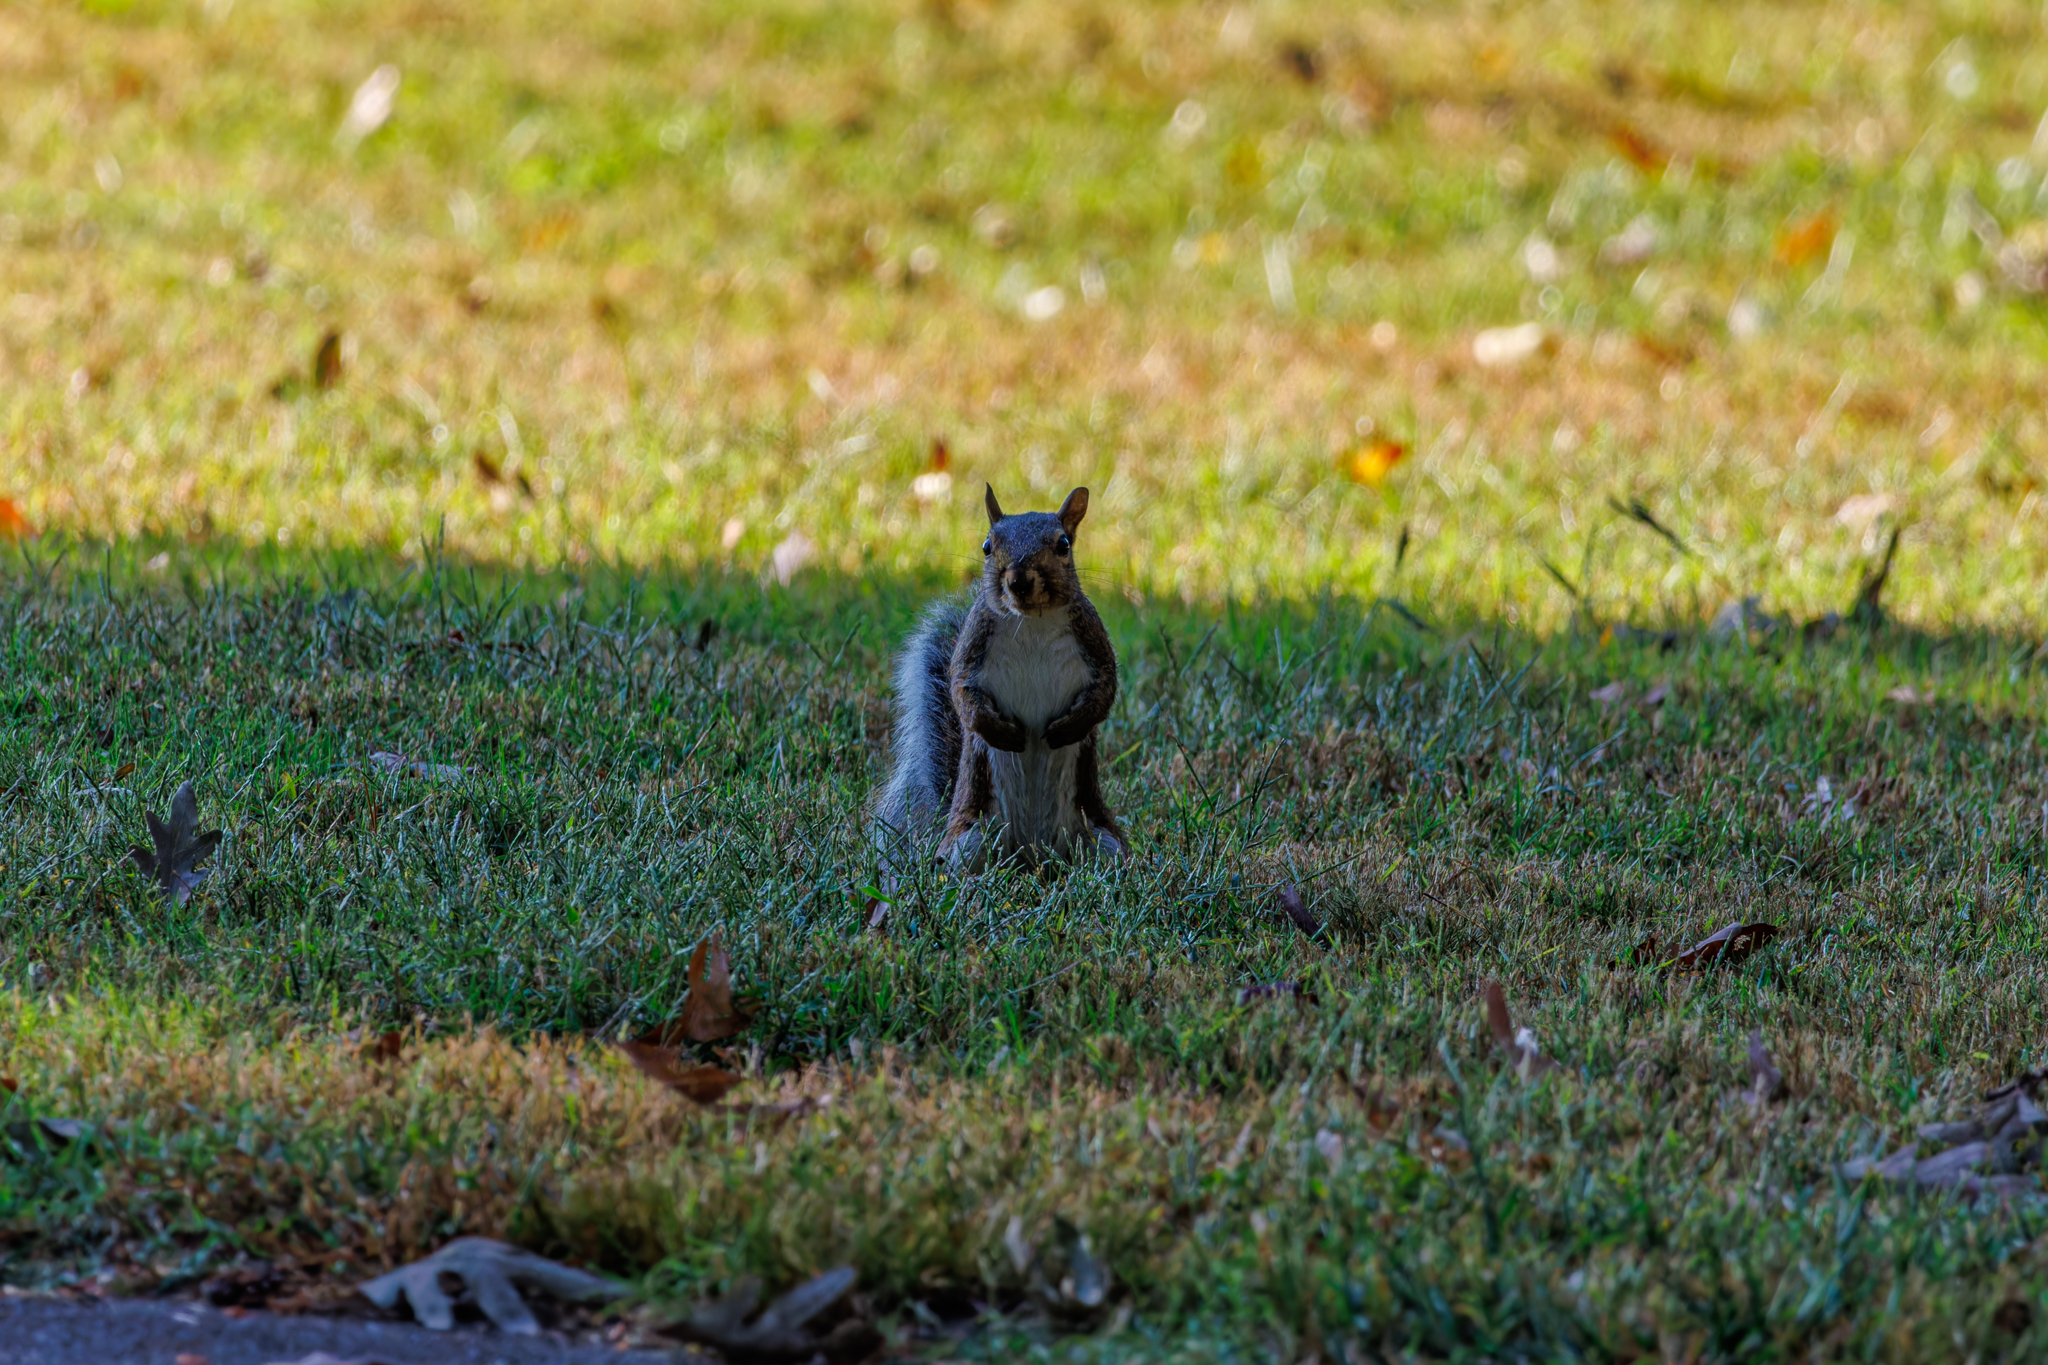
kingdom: Animalia
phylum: Chordata
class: Mammalia
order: Rodentia
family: Sciuridae
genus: Sciurus
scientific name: Sciurus carolinensis
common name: Eastern gray squirrel
